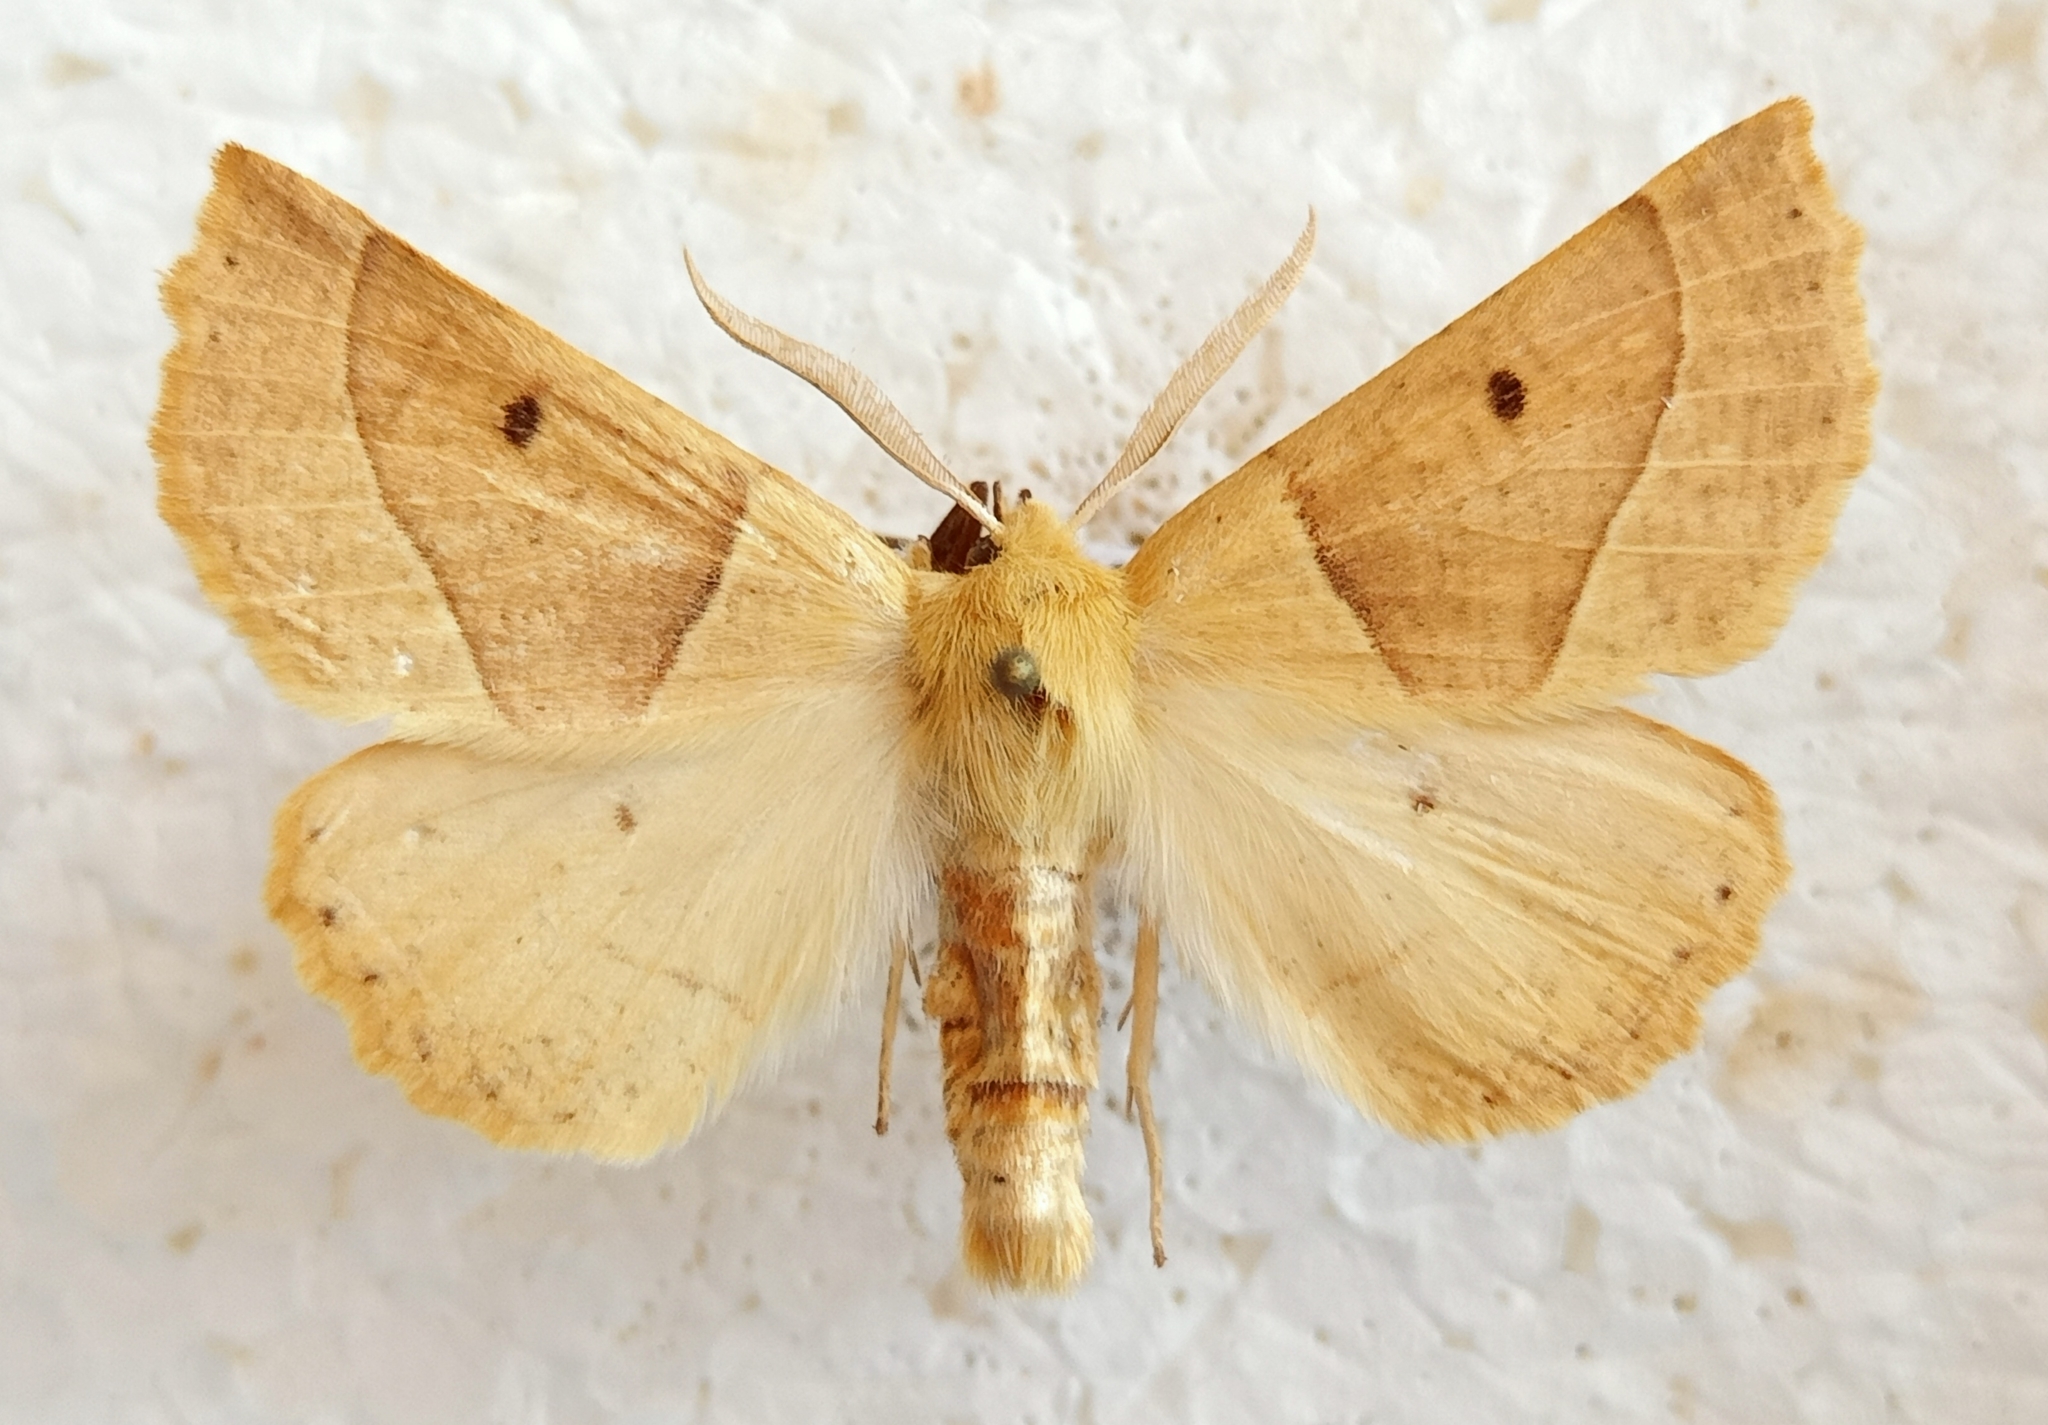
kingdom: Animalia
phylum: Arthropoda
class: Insecta
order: Lepidoptera
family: Geometridae
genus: Crocallis
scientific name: Crocallis elinguaria
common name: Scalloped oak
